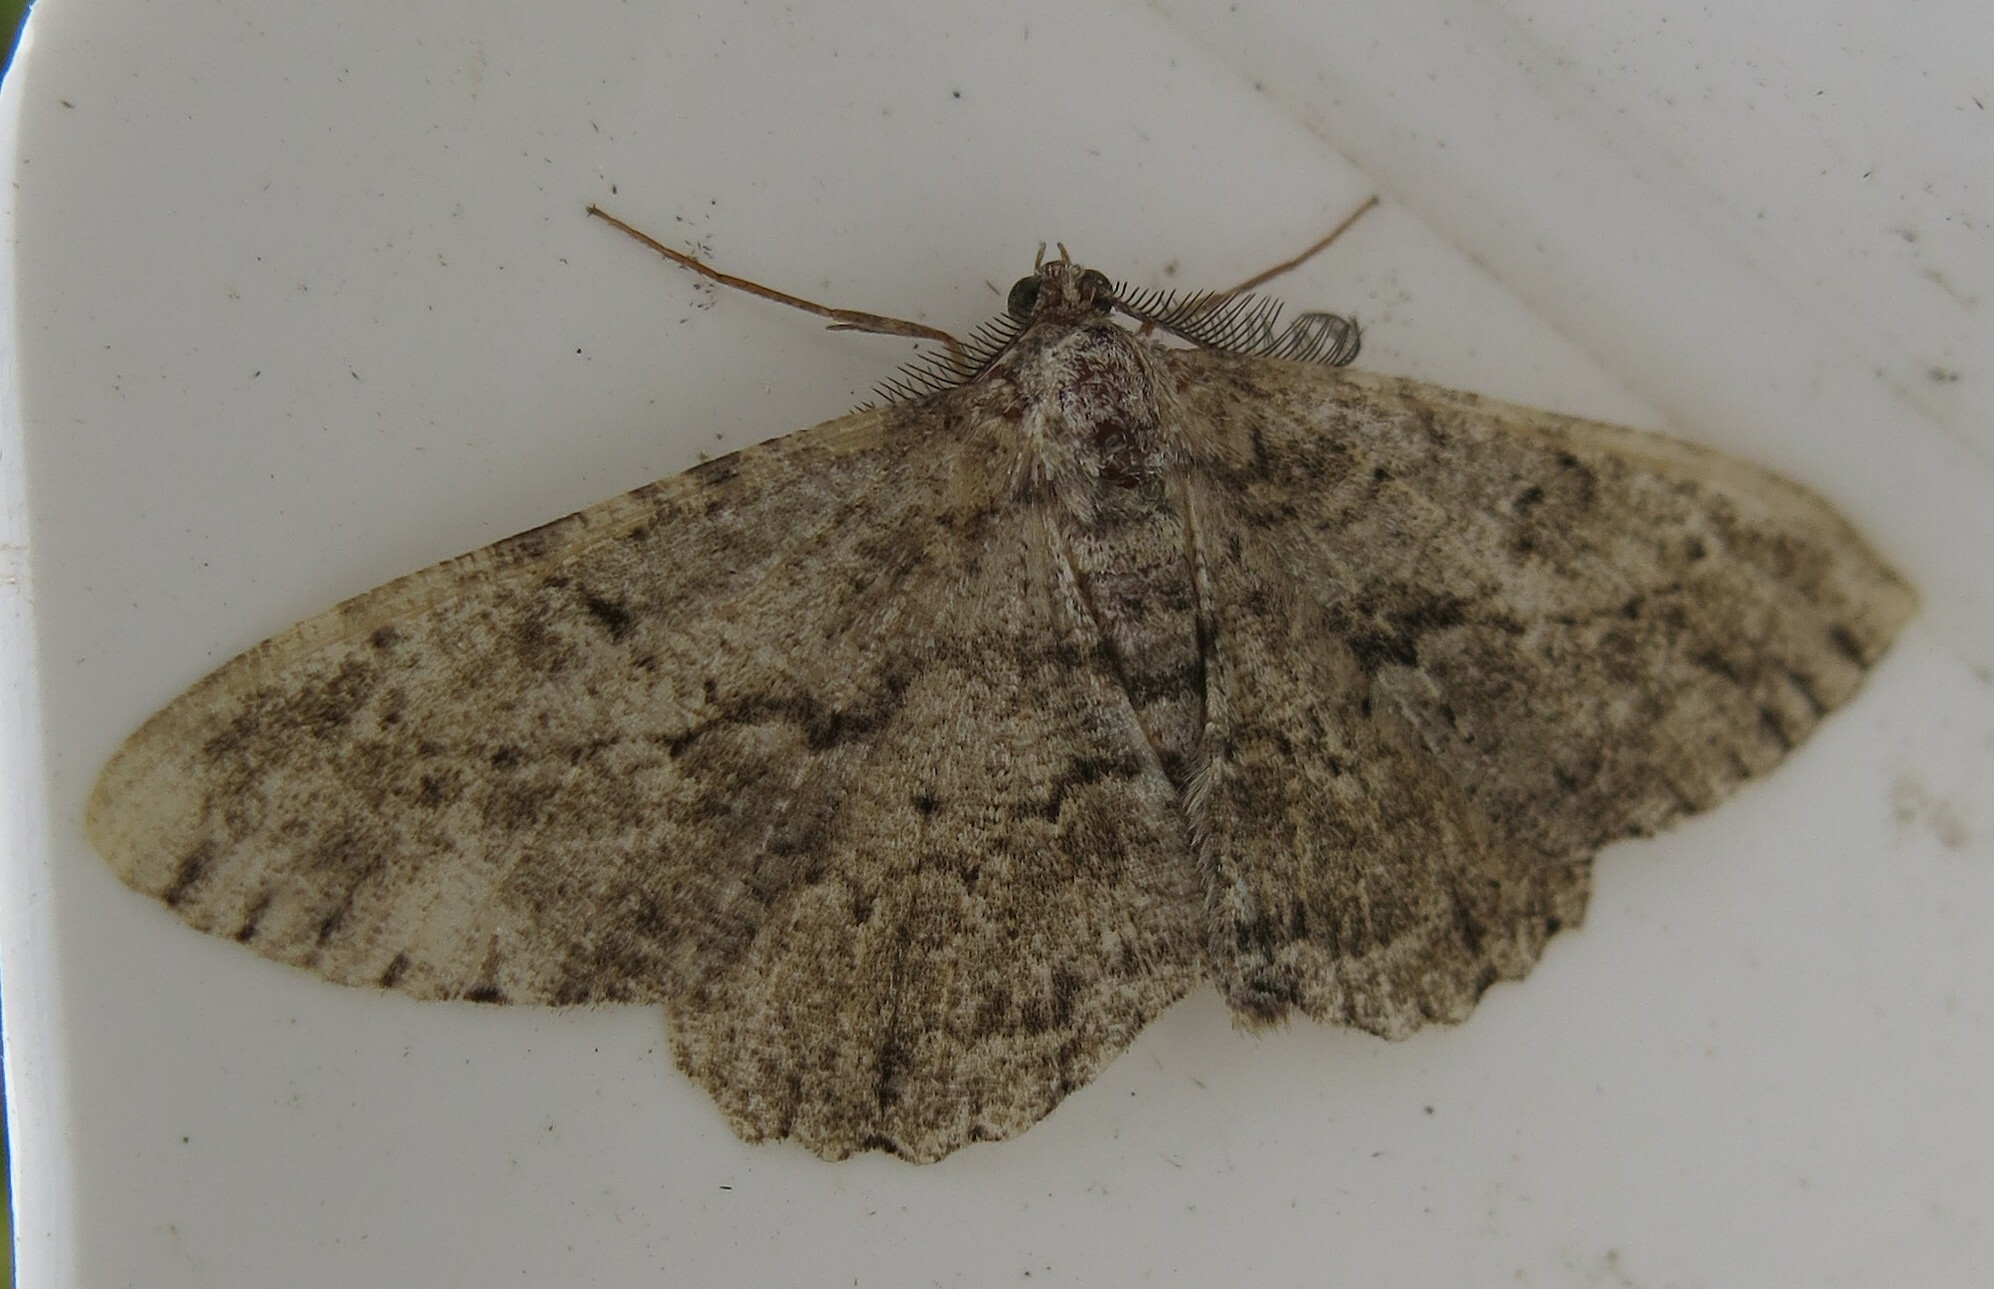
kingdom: Animalia
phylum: Arthropoda
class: Insecta
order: Lepidoptera
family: Geometridae
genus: Peribatodes
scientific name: Peribatodes rhomboidaria
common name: Willow beauty
